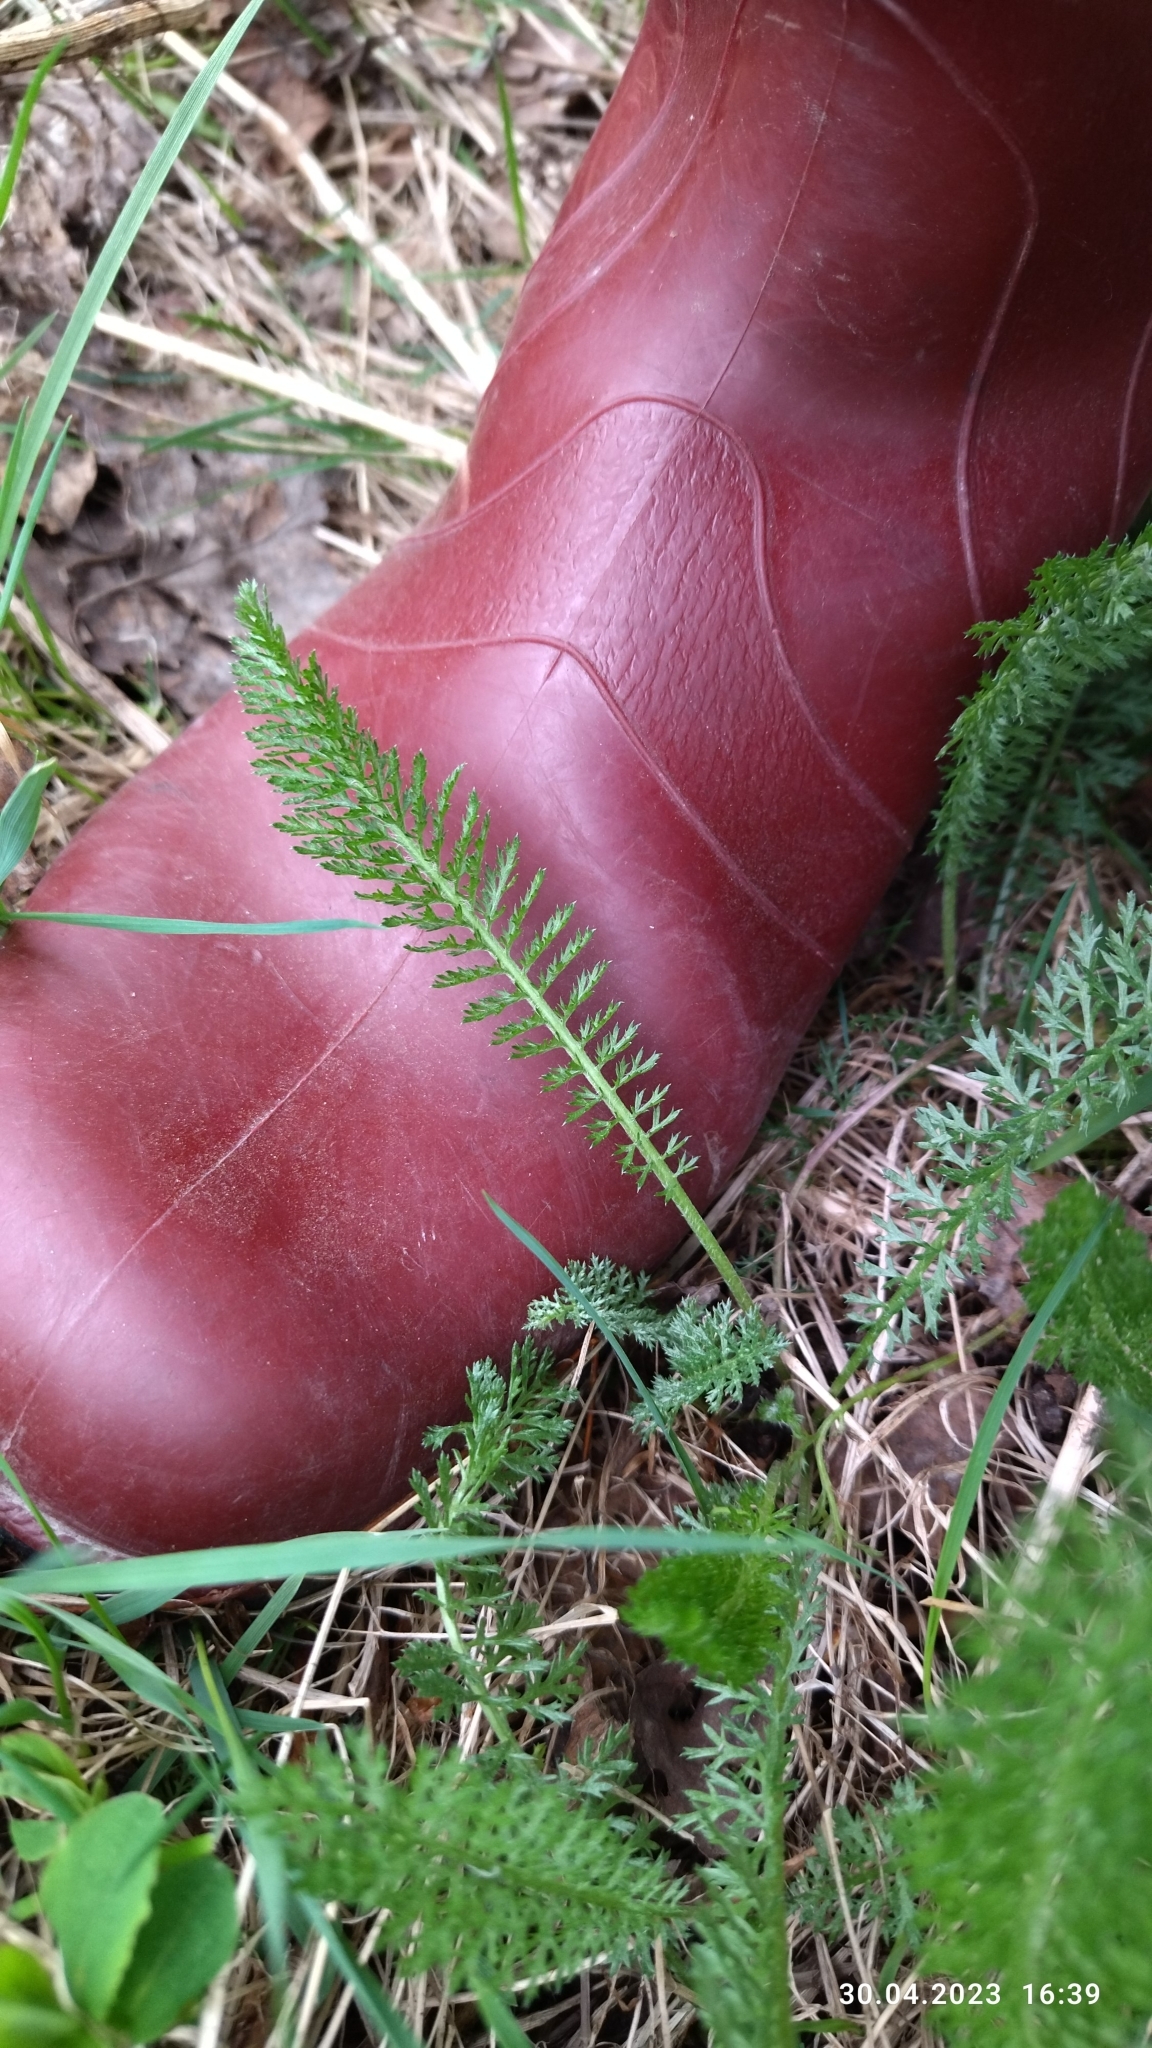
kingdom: Plantae
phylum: Tracheophyta
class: Magnoliopsida
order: Asterales
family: Asteraceae
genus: Achillea
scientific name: Achillea millefolium
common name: Yarrow
